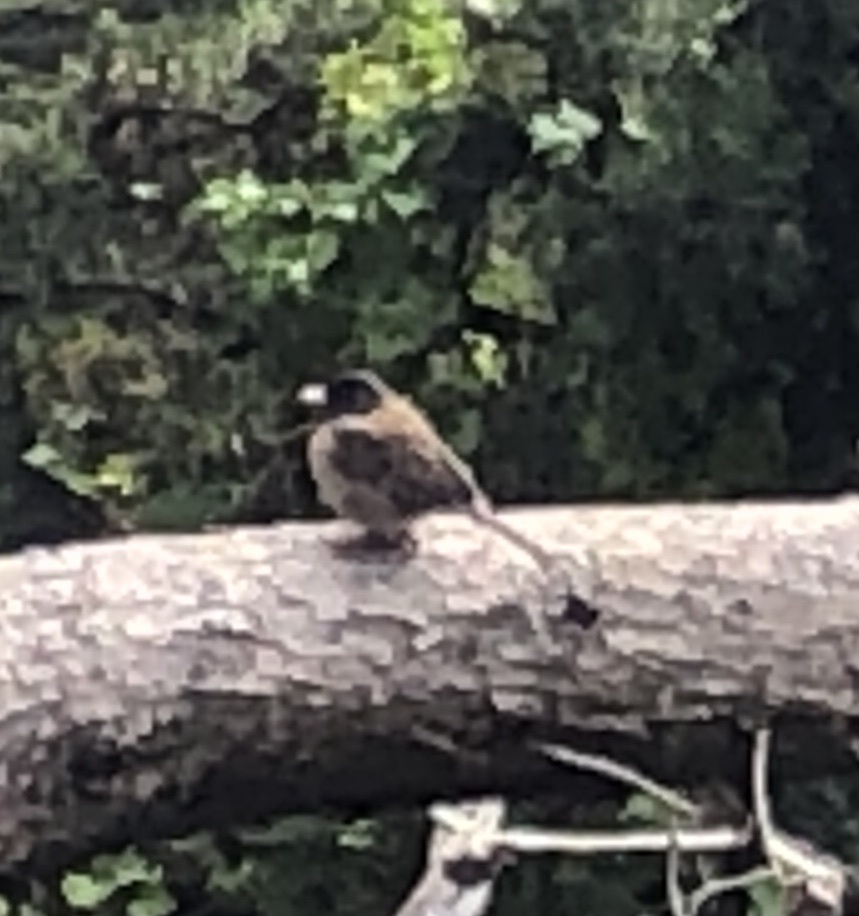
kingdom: Animalia
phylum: Chordata
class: Aves
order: Passeriformes
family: Passerellidae
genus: Junco
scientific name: Junco hyemalis
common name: Dark-eyed junco
